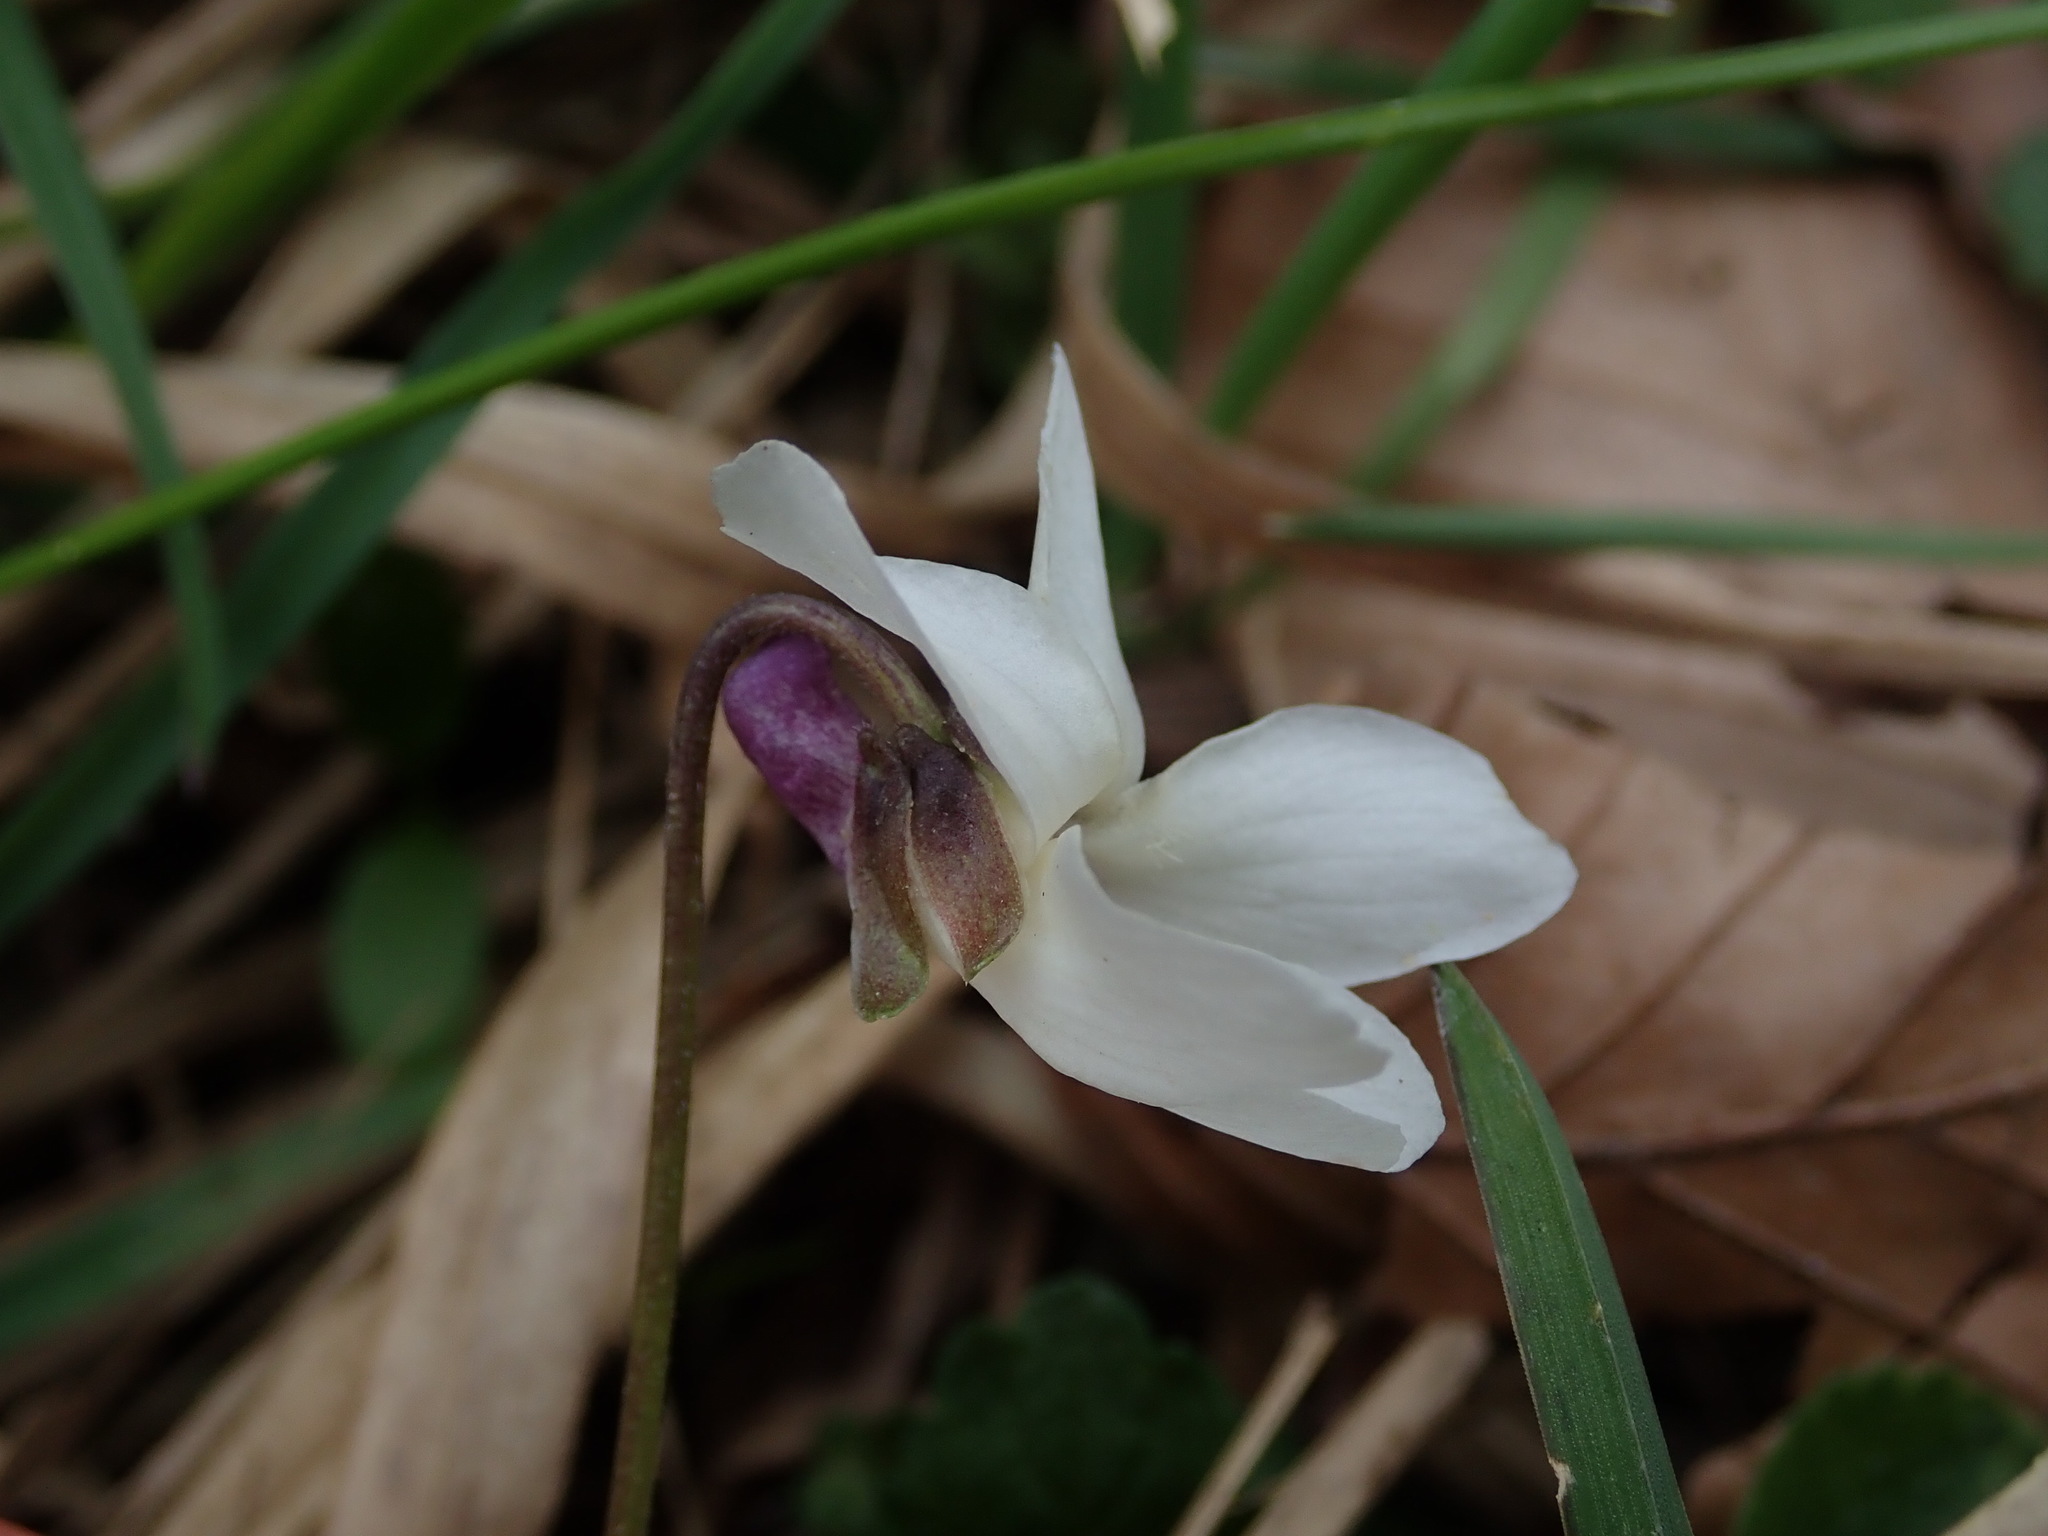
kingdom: Plantae
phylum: Tracheophyta
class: Magnoliopsida
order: Malpighiales
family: Violaceae
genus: Viola
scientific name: Viola odorata
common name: Sweet violet
